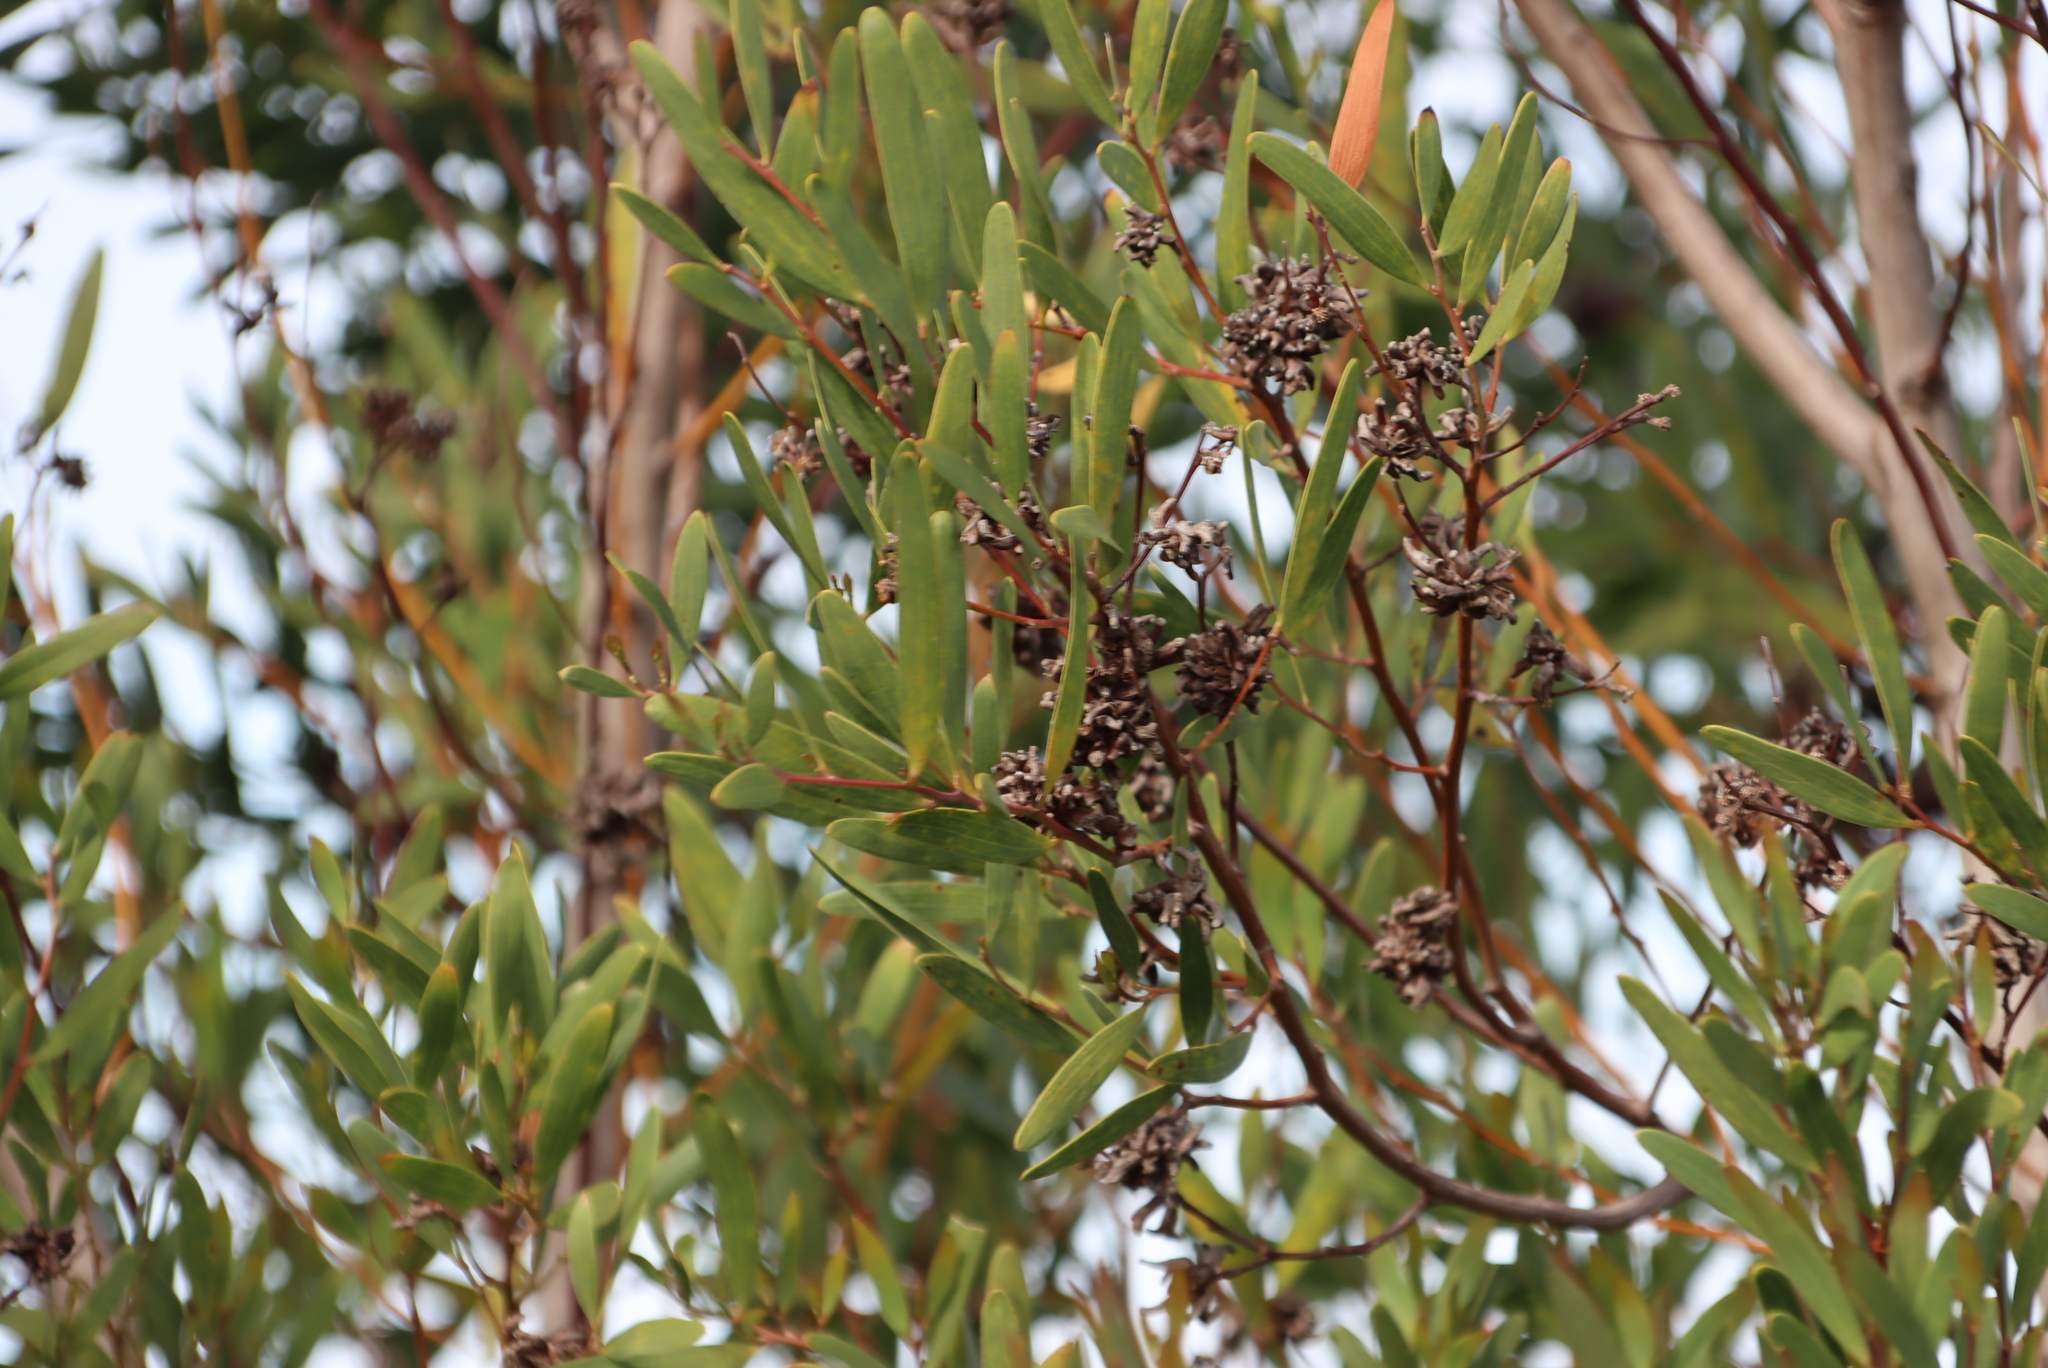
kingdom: Animalia
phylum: Arthropoda
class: Insecta
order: Diptera
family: Cecidomyiidae
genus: Dasineura
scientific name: Dasineura dielsi
